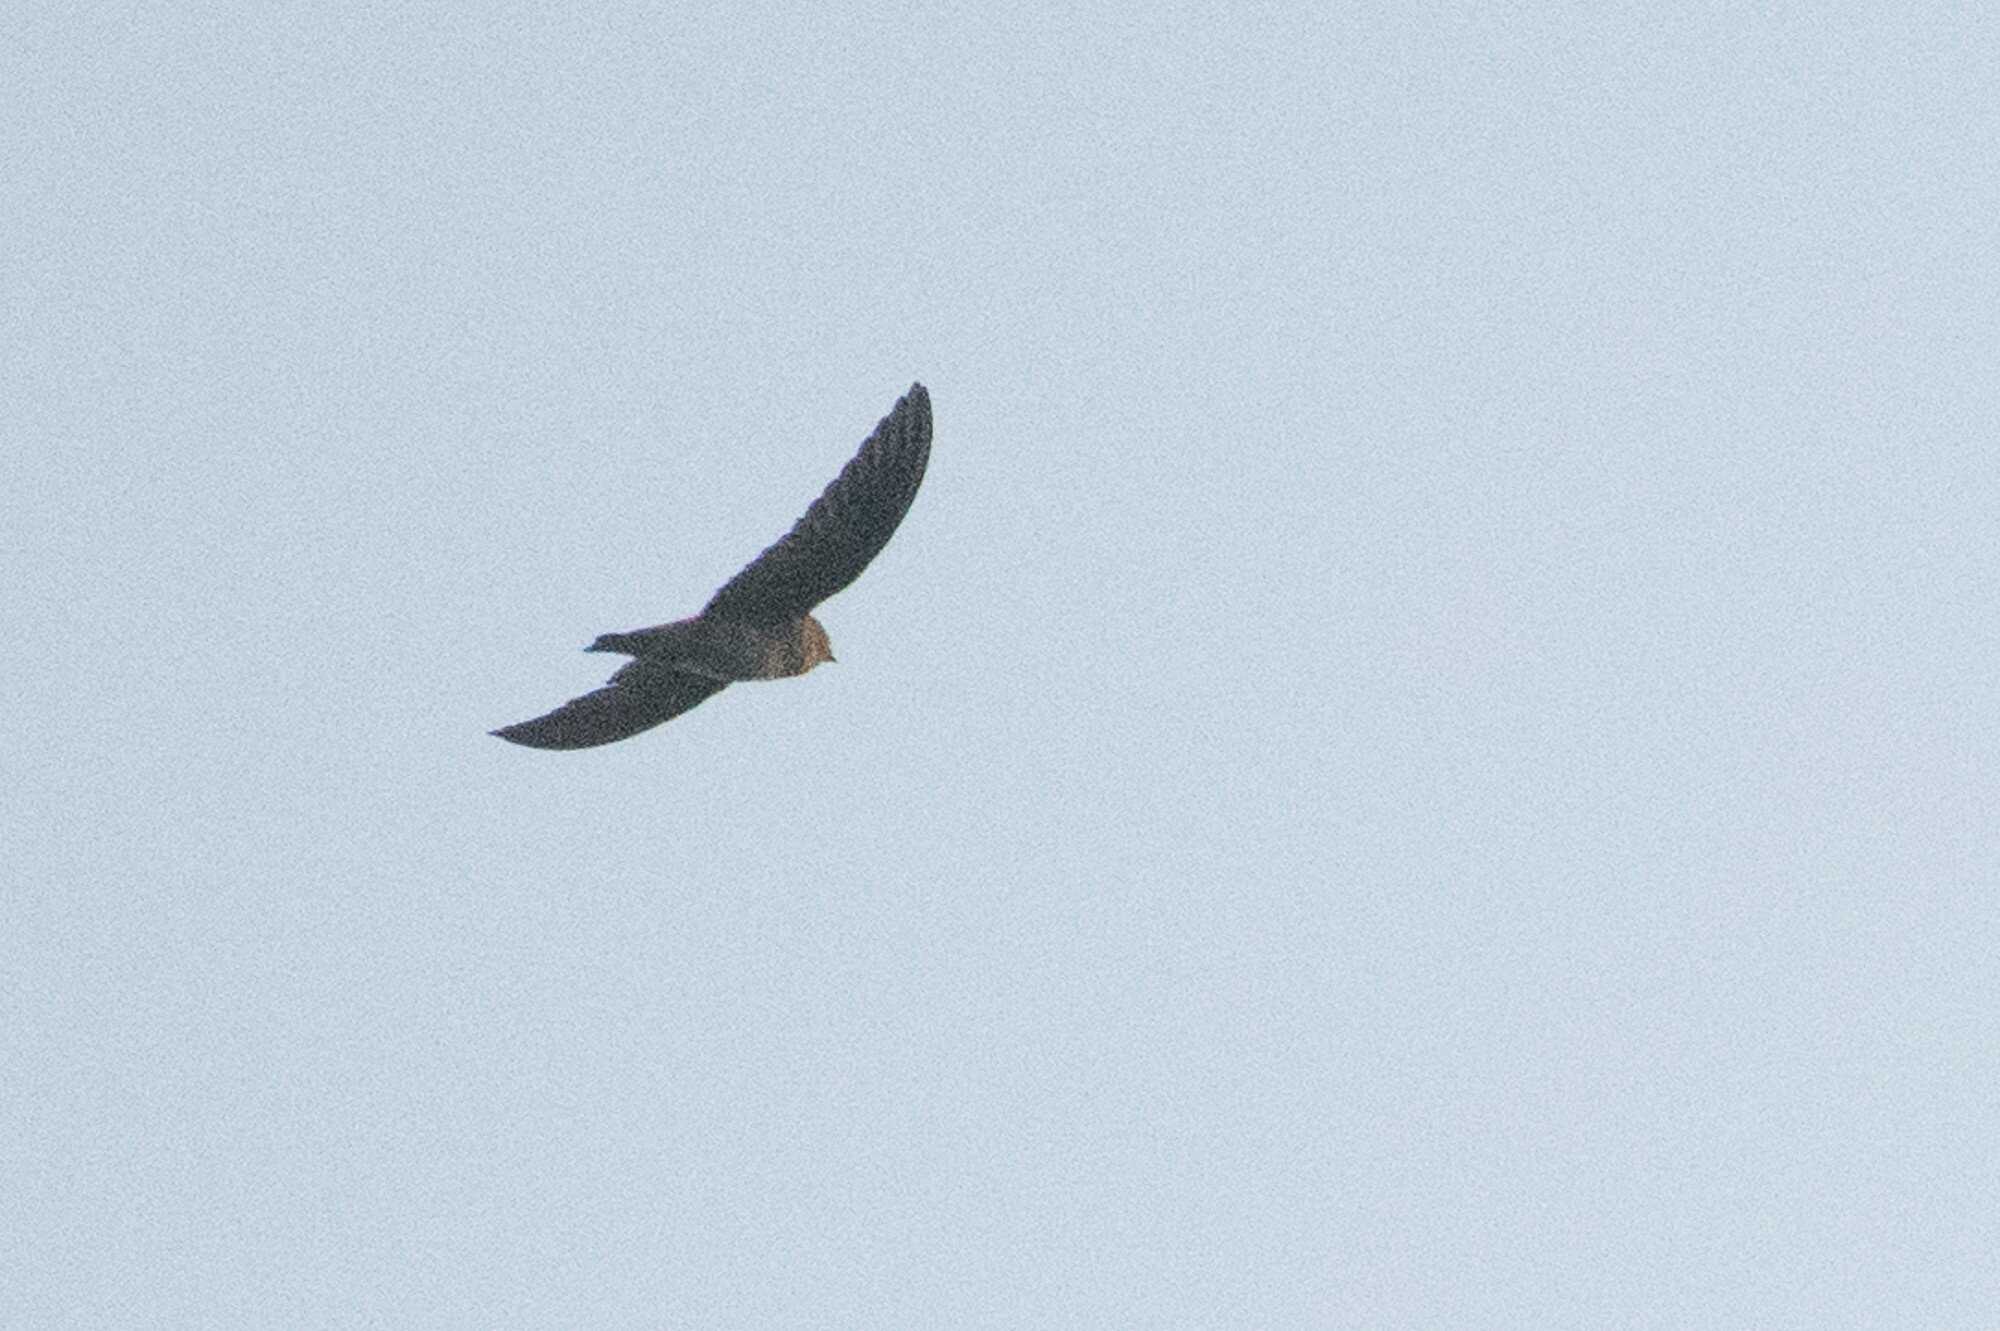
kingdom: Animalia
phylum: Chordata
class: Aves
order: Apodiformes
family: Apodidae
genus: Chaetura
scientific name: Chaetura vauxi
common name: Vaux's swift
